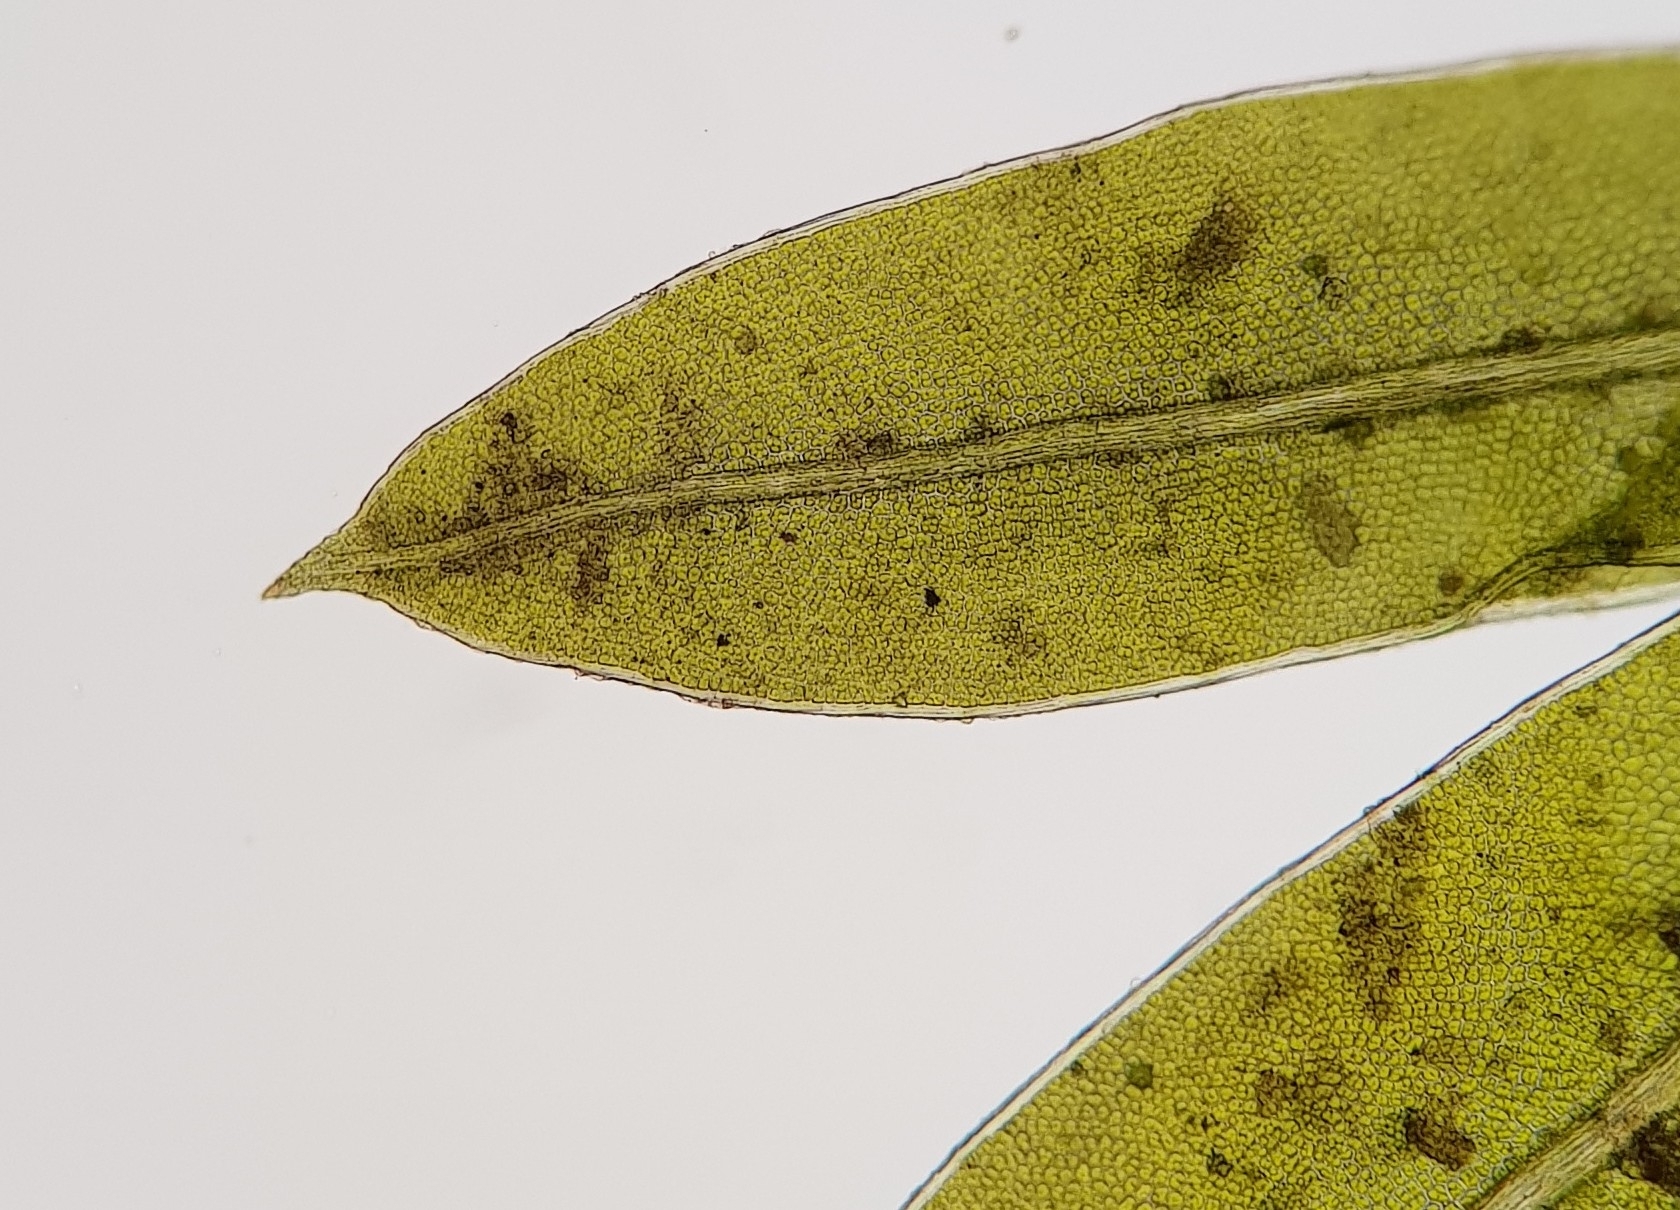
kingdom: Plantae
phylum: Bryophyta
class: Bryopsida
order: Dicranales
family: Fissidentaceae
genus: Fissidens
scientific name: Fissidens bryoides
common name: Lesser pocket moss
